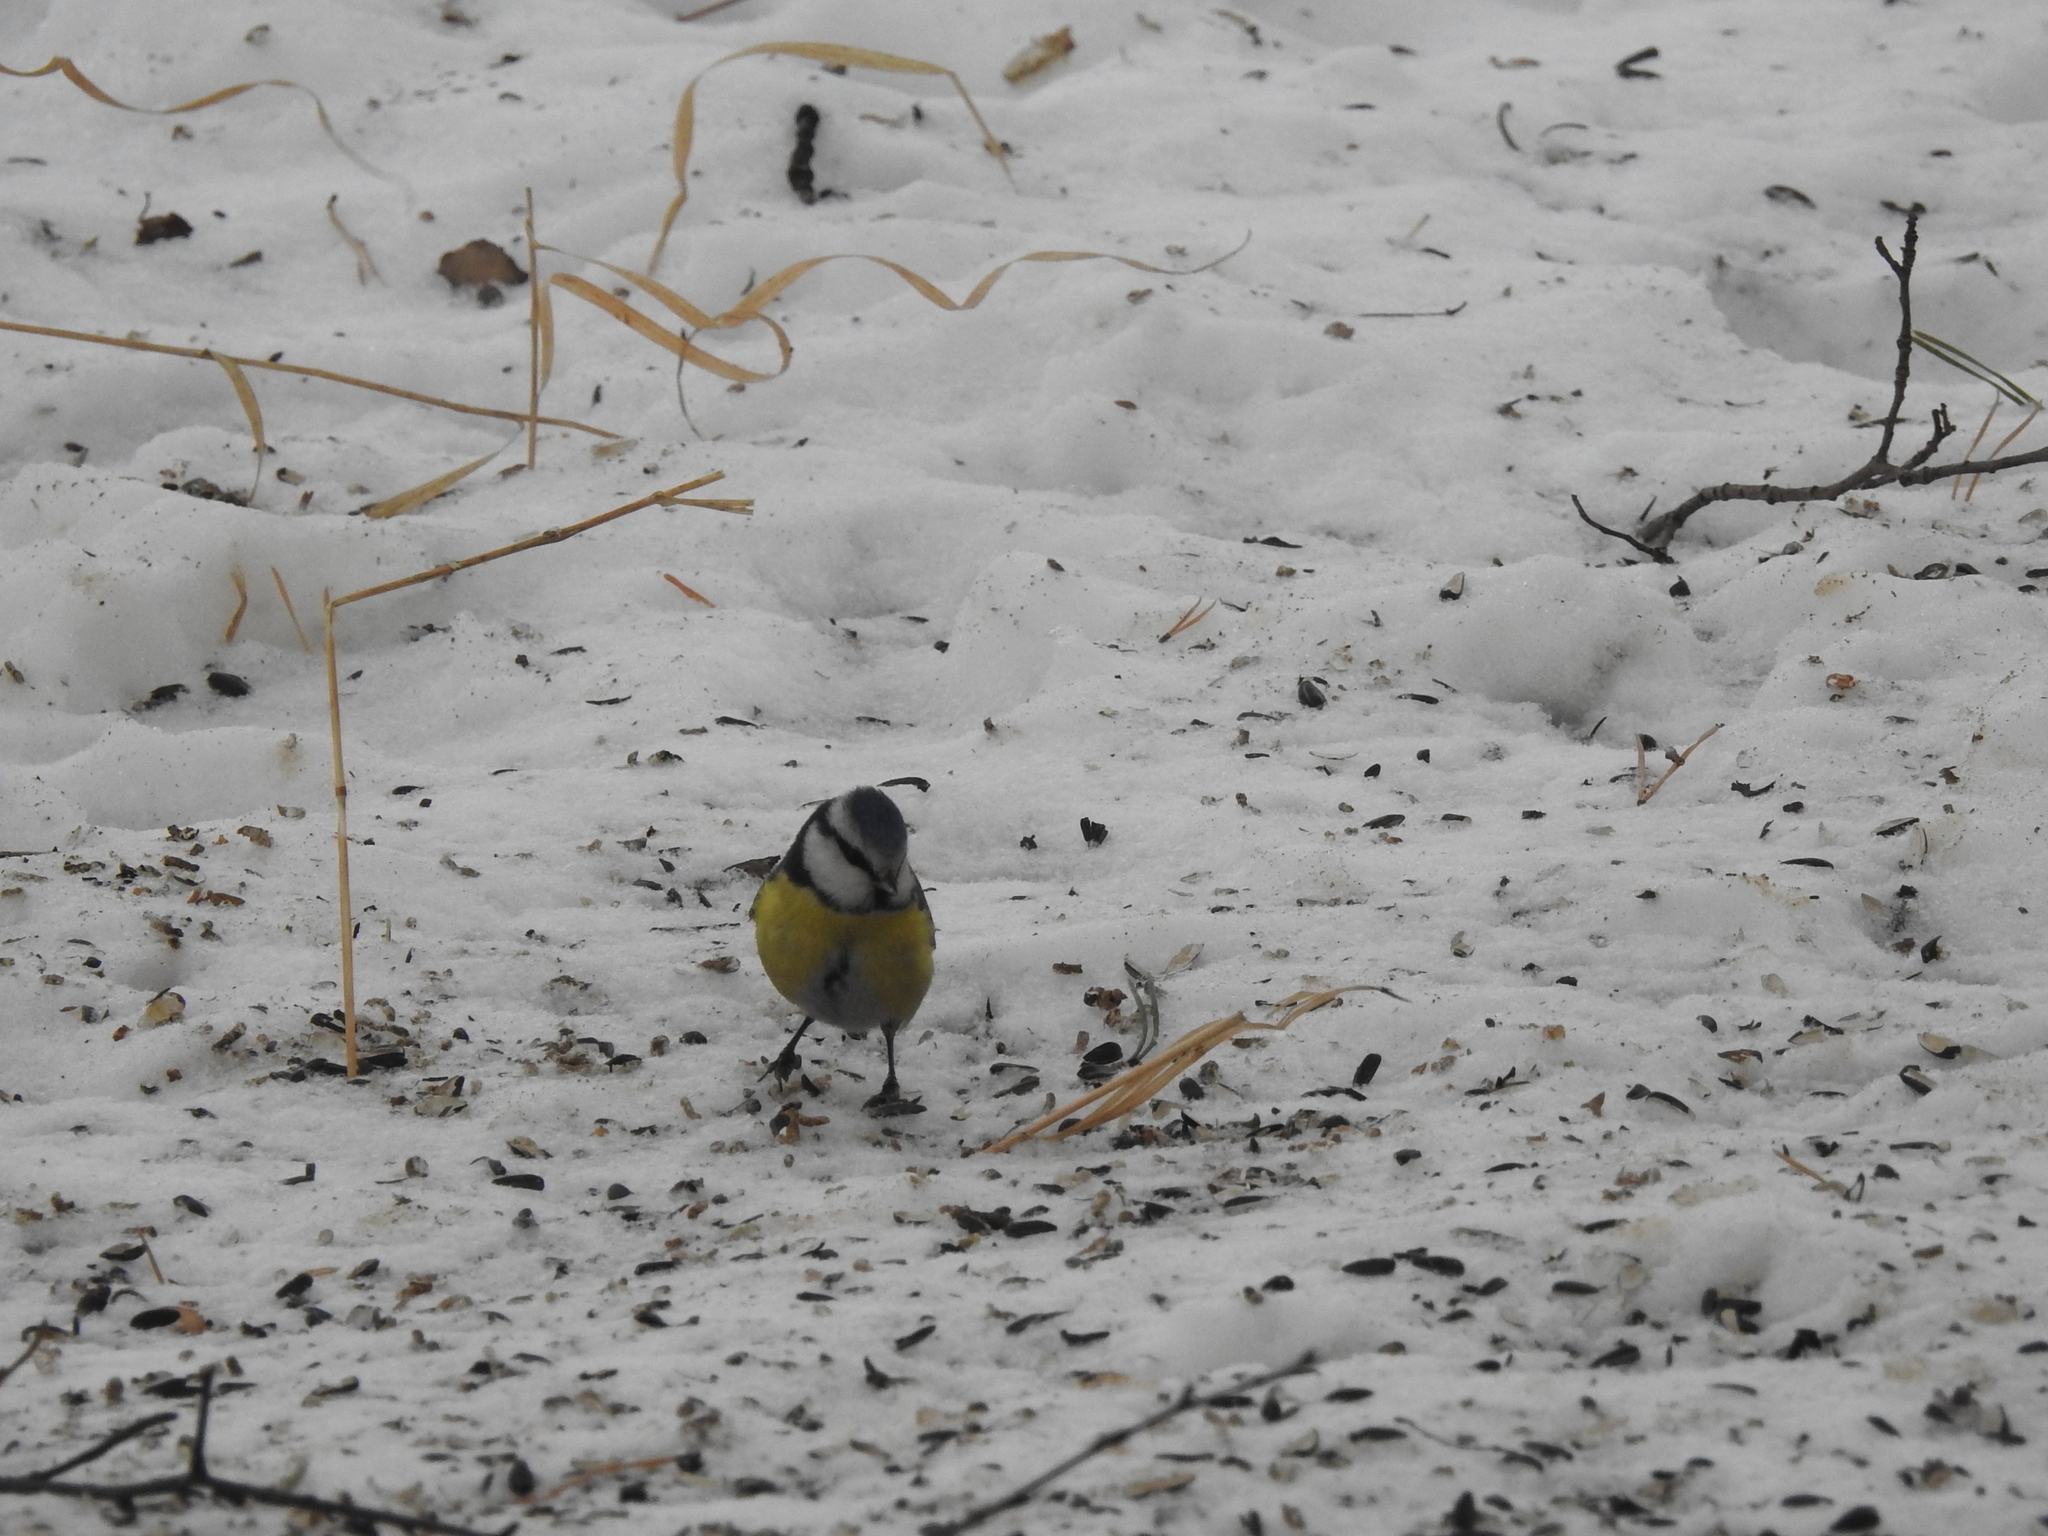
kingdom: Animalia
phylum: Chordata
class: Aves
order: Passeriformes
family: Paridae
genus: Cyanistes
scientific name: Cyanistes caeruleus
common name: Eurasian blue tit
